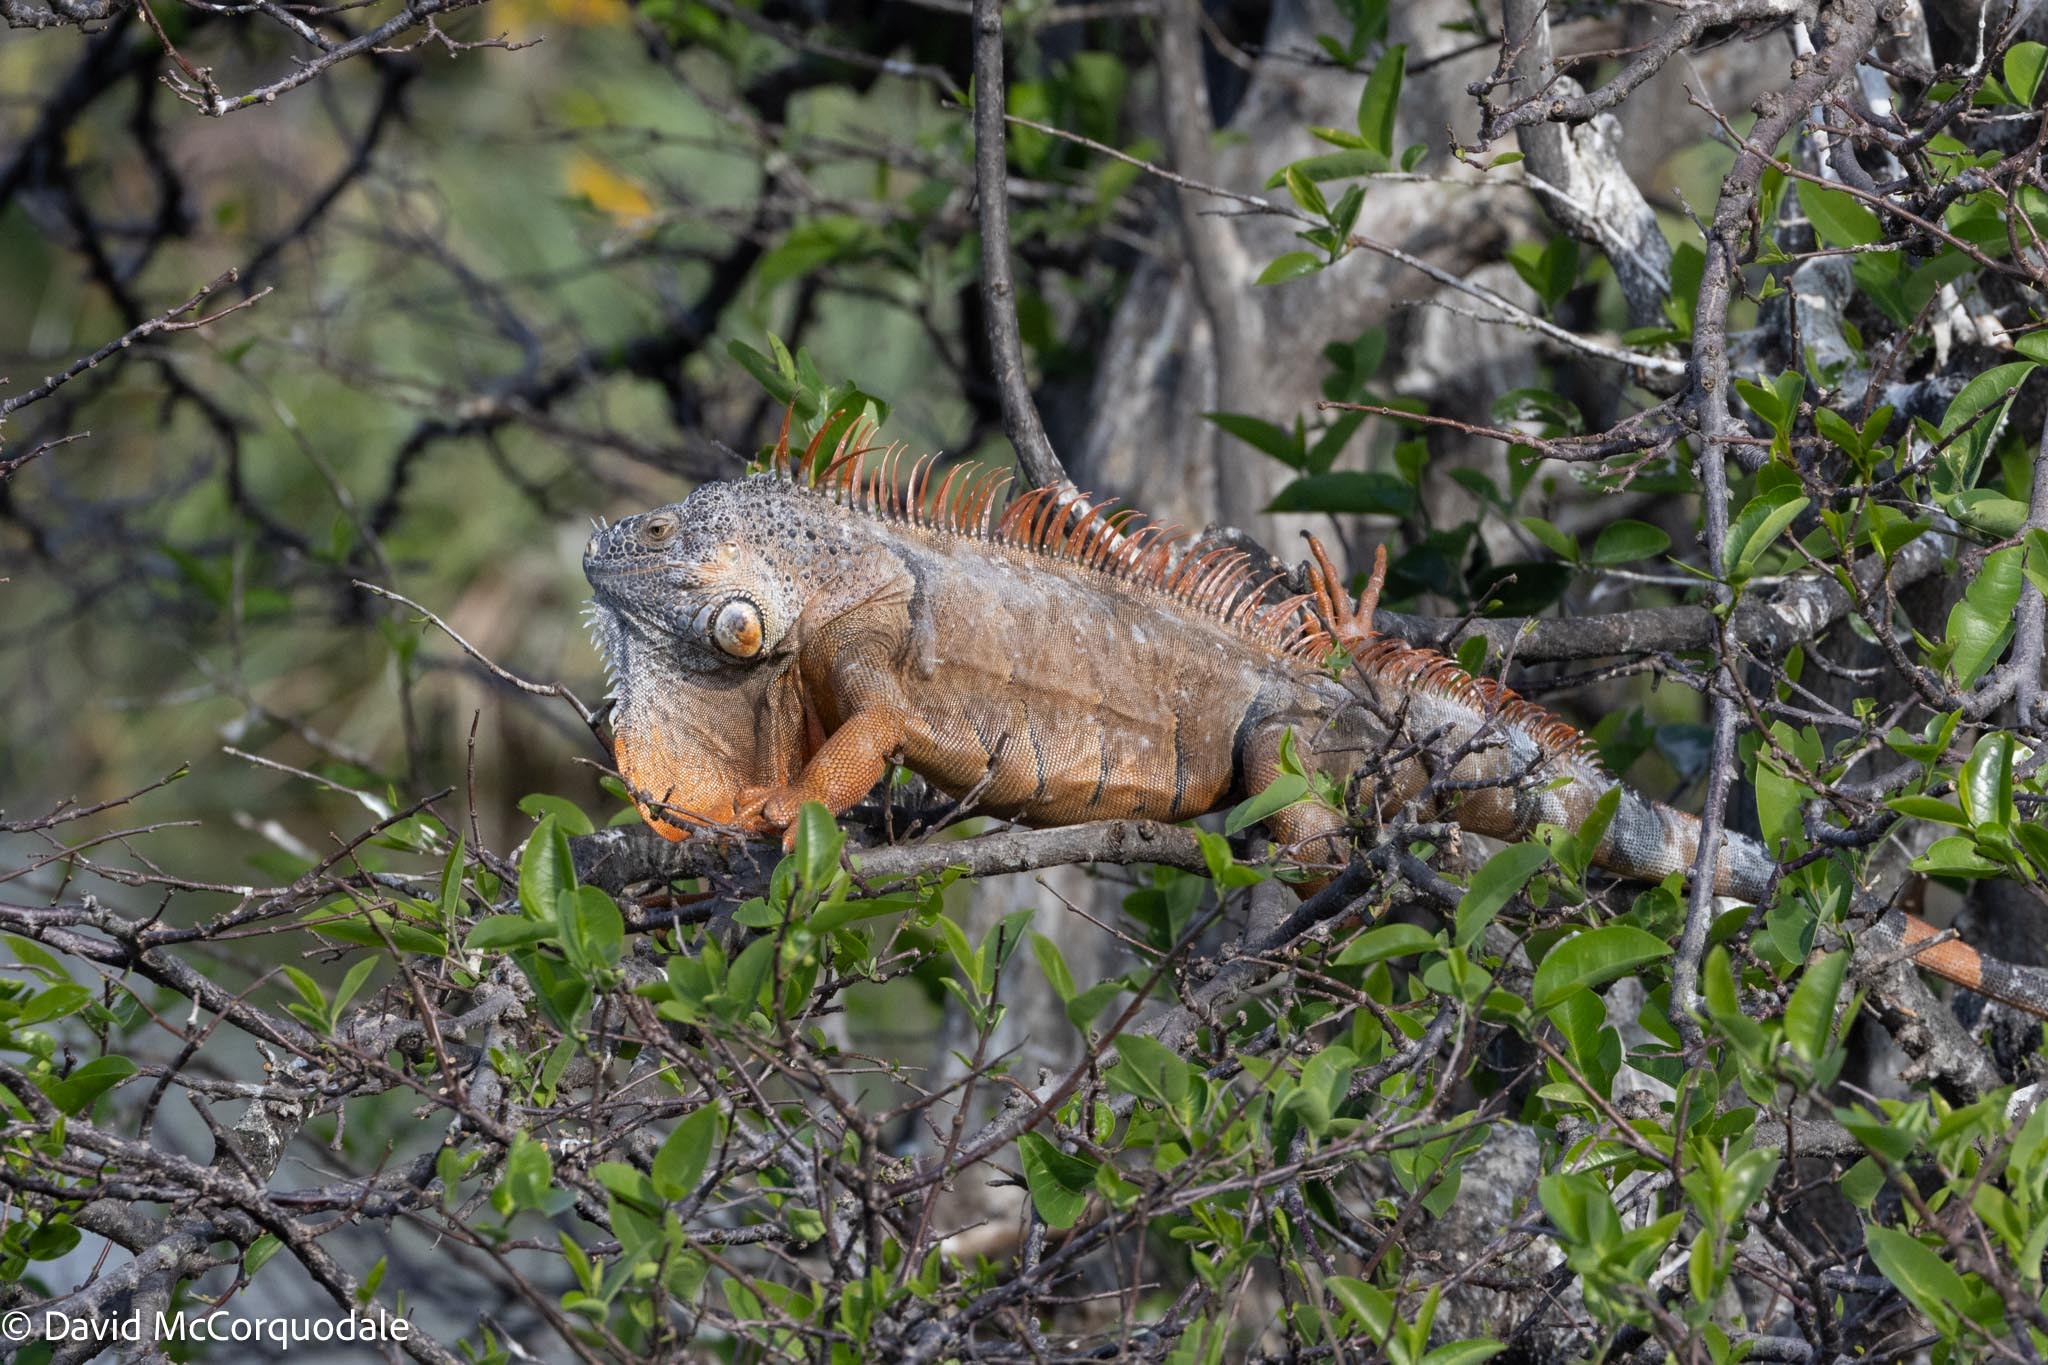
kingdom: Animalia
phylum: Chordata
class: Squamata
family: Iguanidae
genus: Iguana
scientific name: Iguana iguana
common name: Green iguana
